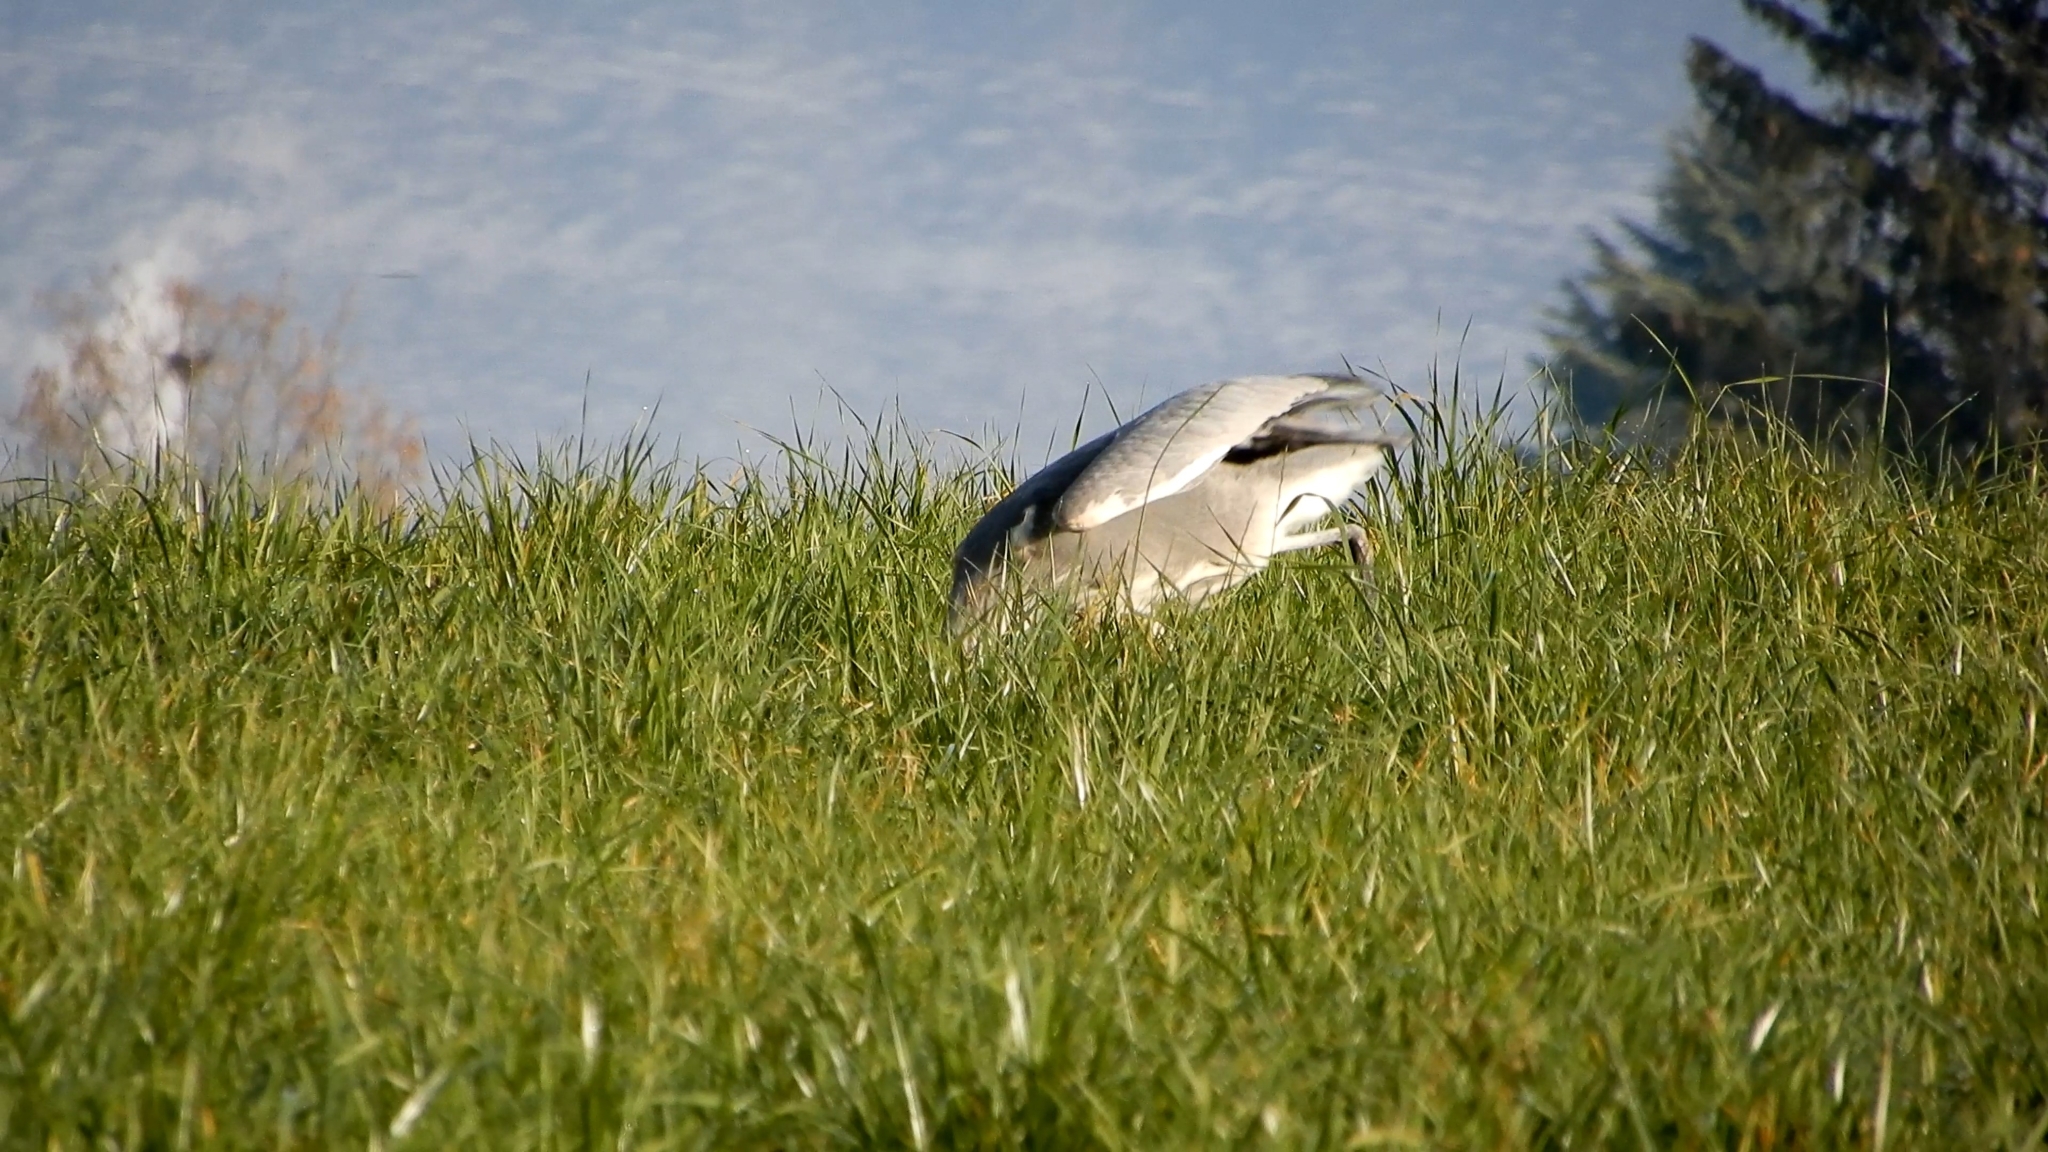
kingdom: Animalia
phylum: Chordata
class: Aves
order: Pelecaniformes
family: Ardeidae
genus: Ardea
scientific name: Ardea cinerea
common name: Grey heron
